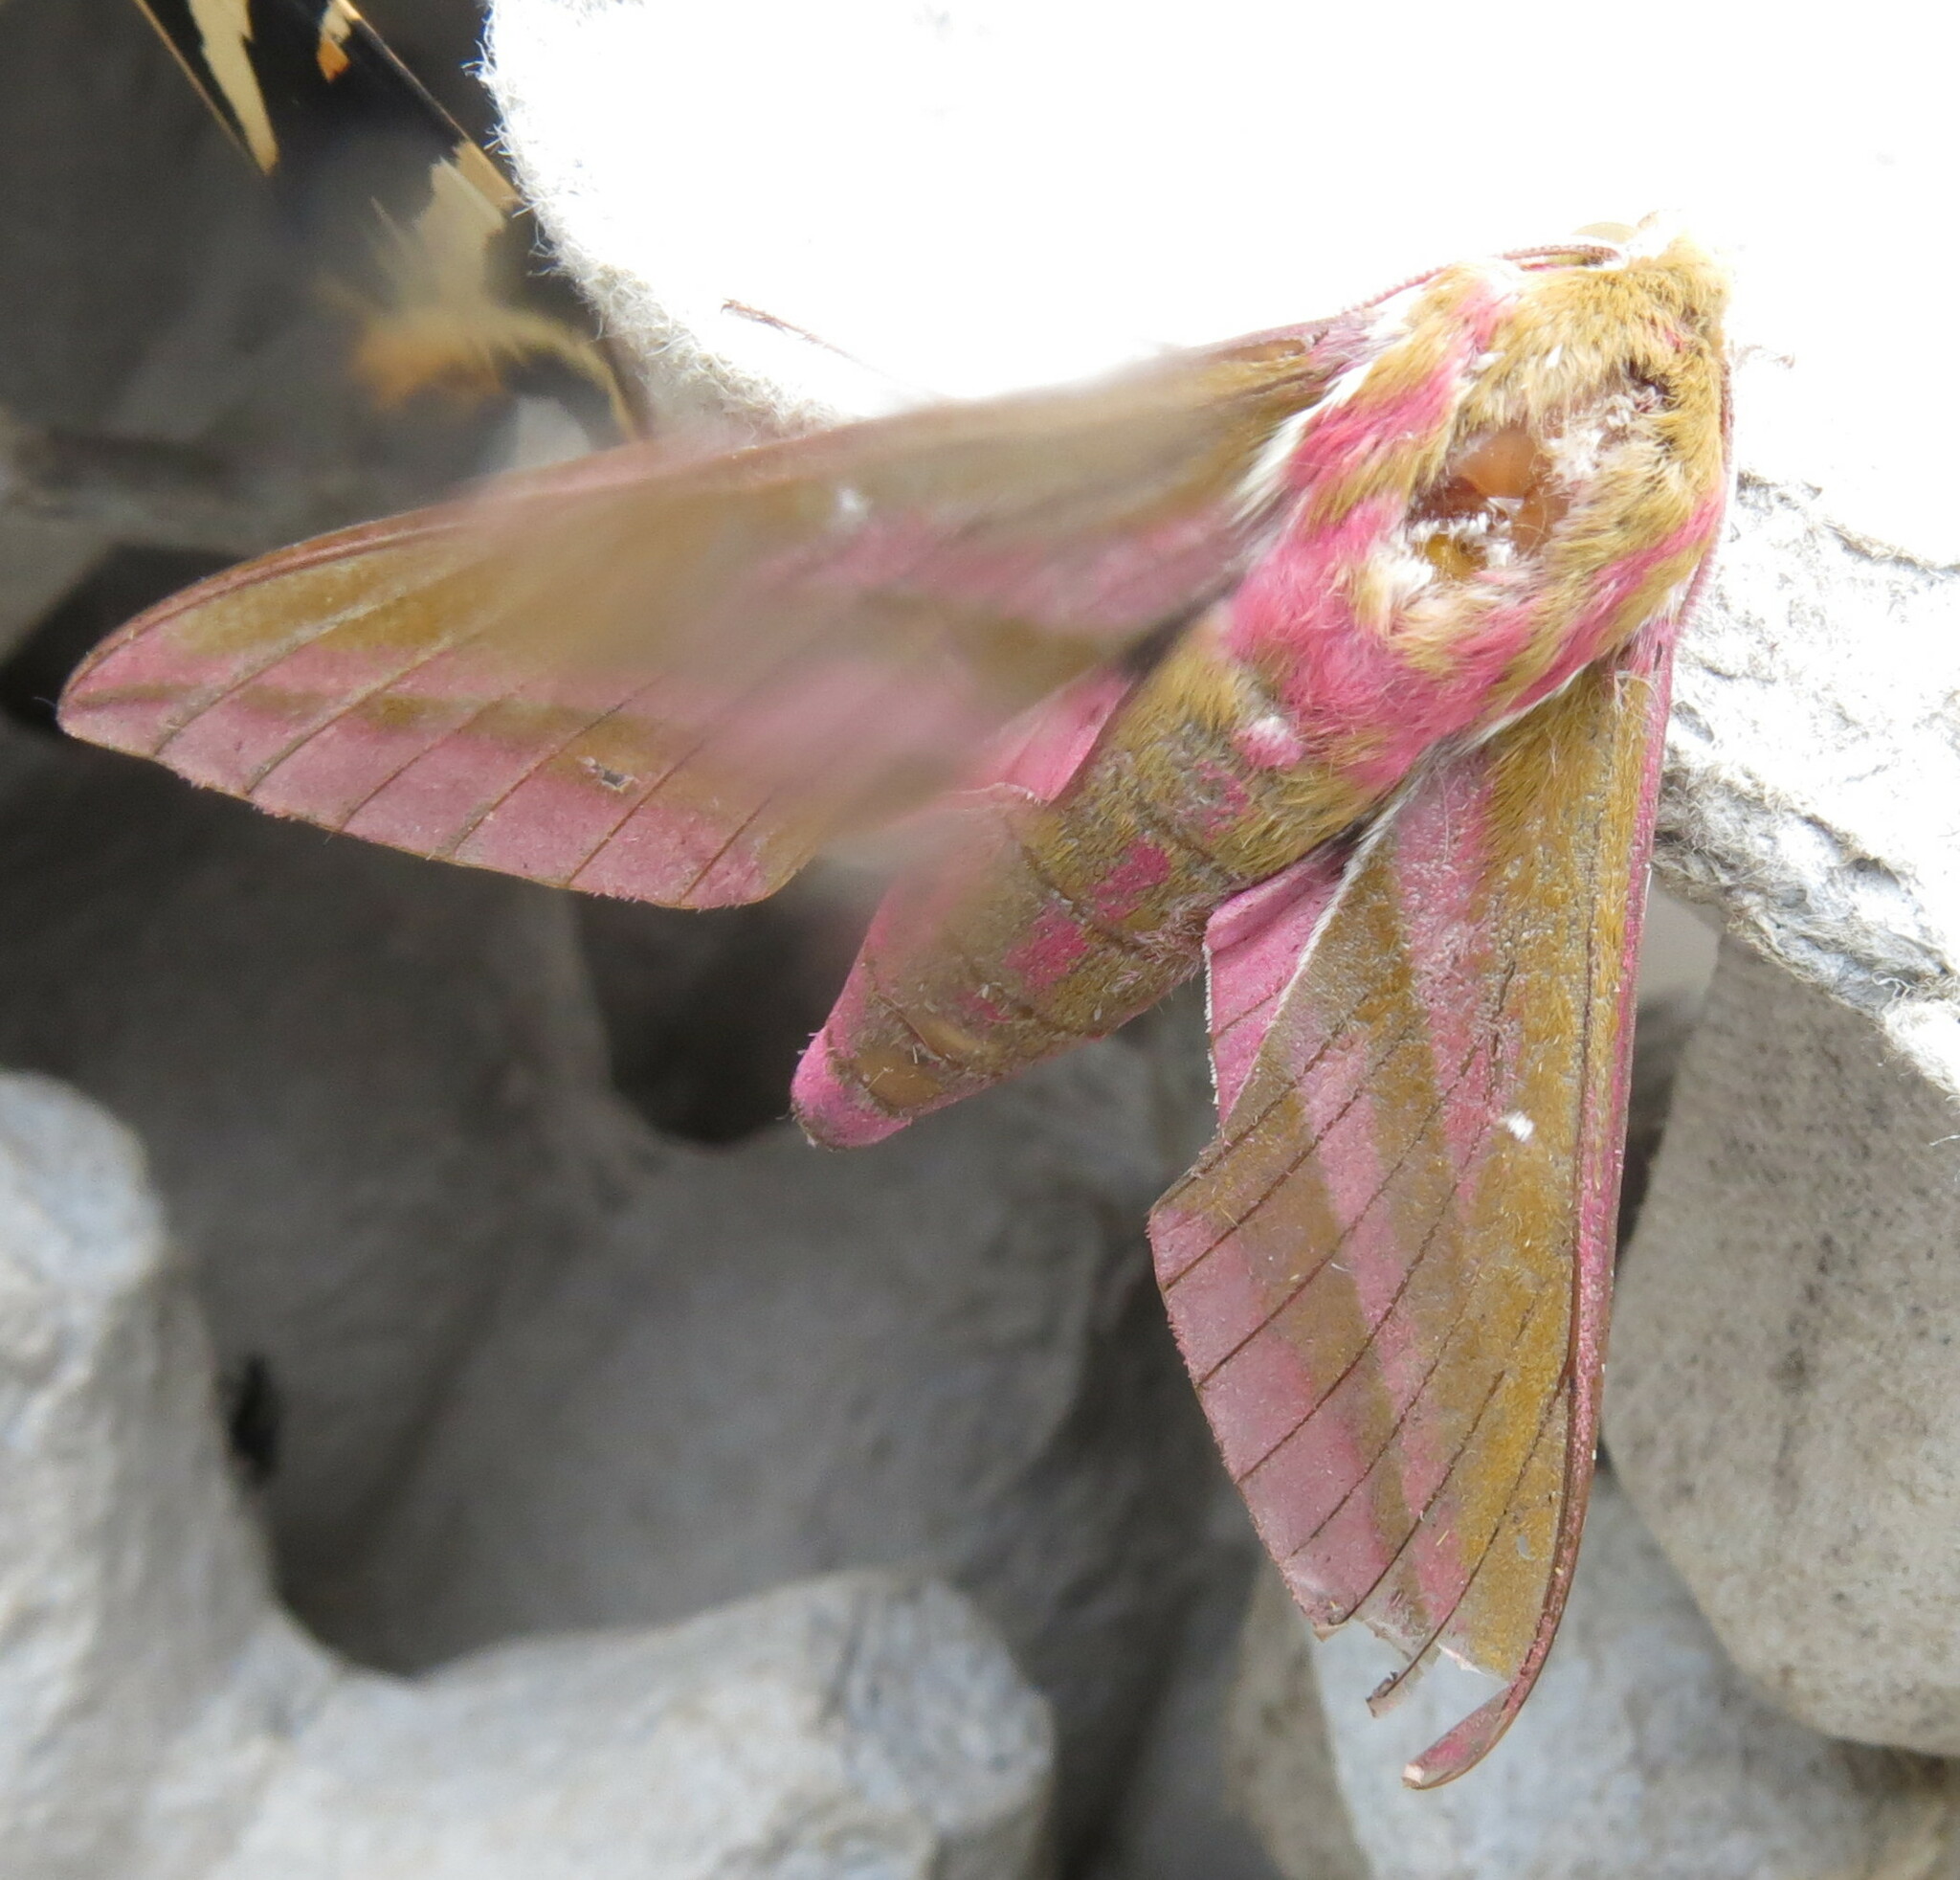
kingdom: Animalia
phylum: Arthropoda
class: Insecta
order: Lepidoptera
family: Sphingidae
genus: Deilephila
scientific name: Deilephila elpenor
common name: Elephant hawk-moth
